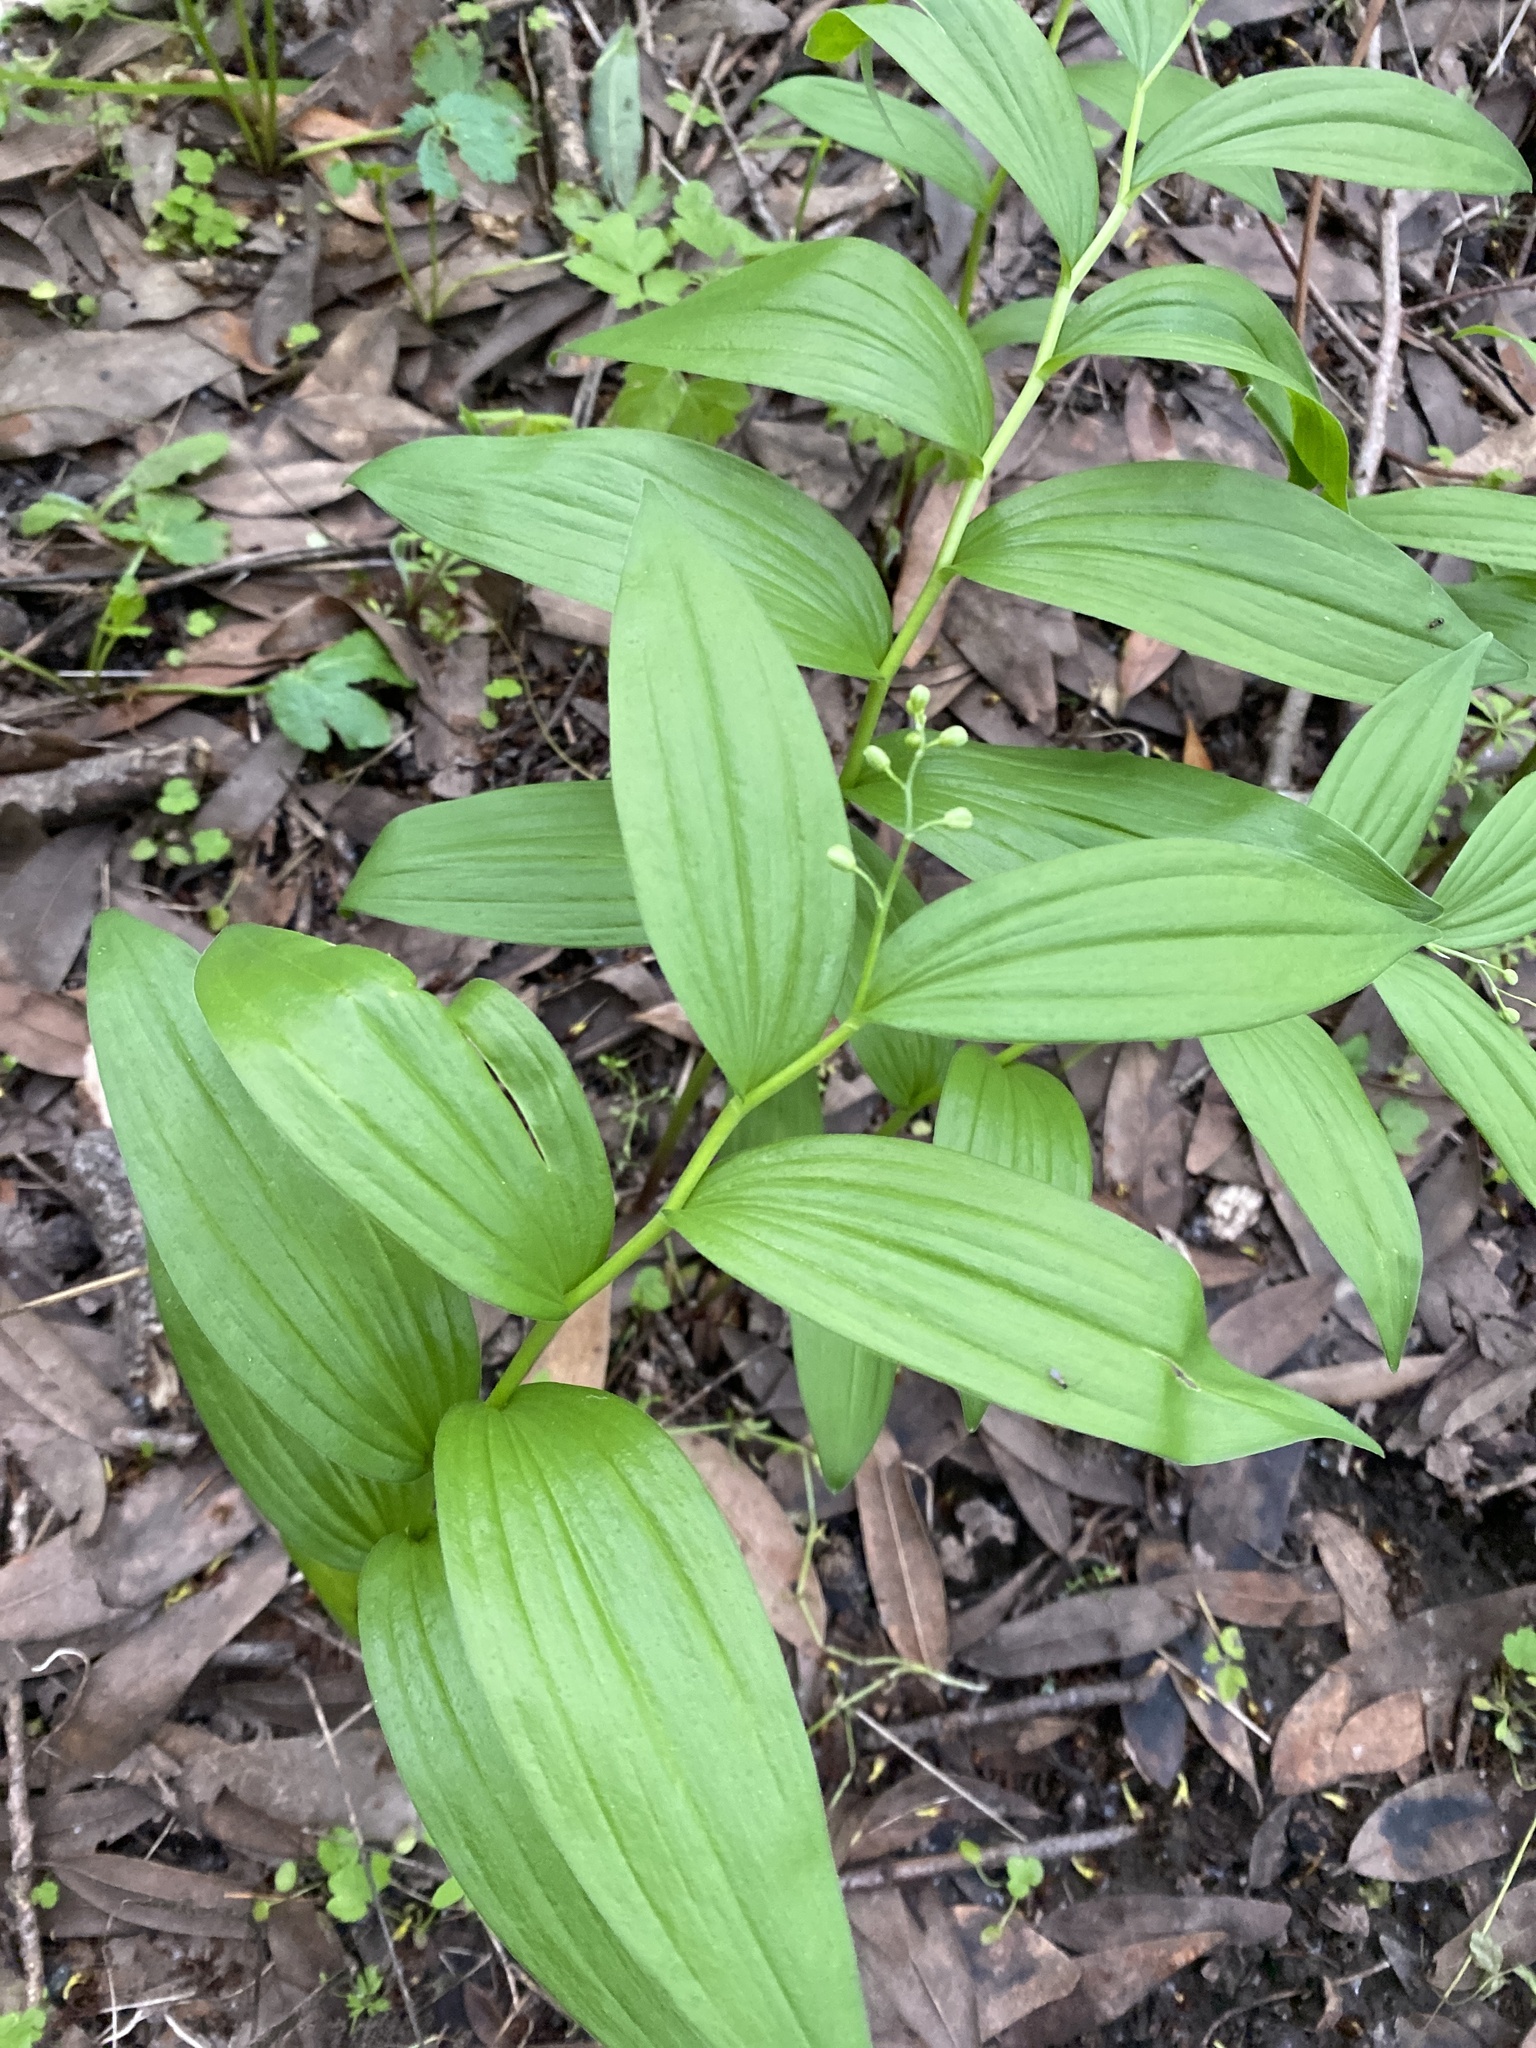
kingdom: Plantae
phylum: Tracheophyta
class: Liliopsida
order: Asparagales
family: Asparagaceae
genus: Maianthemum
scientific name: Maianthemum stellatum
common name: Little false solomon's seal
